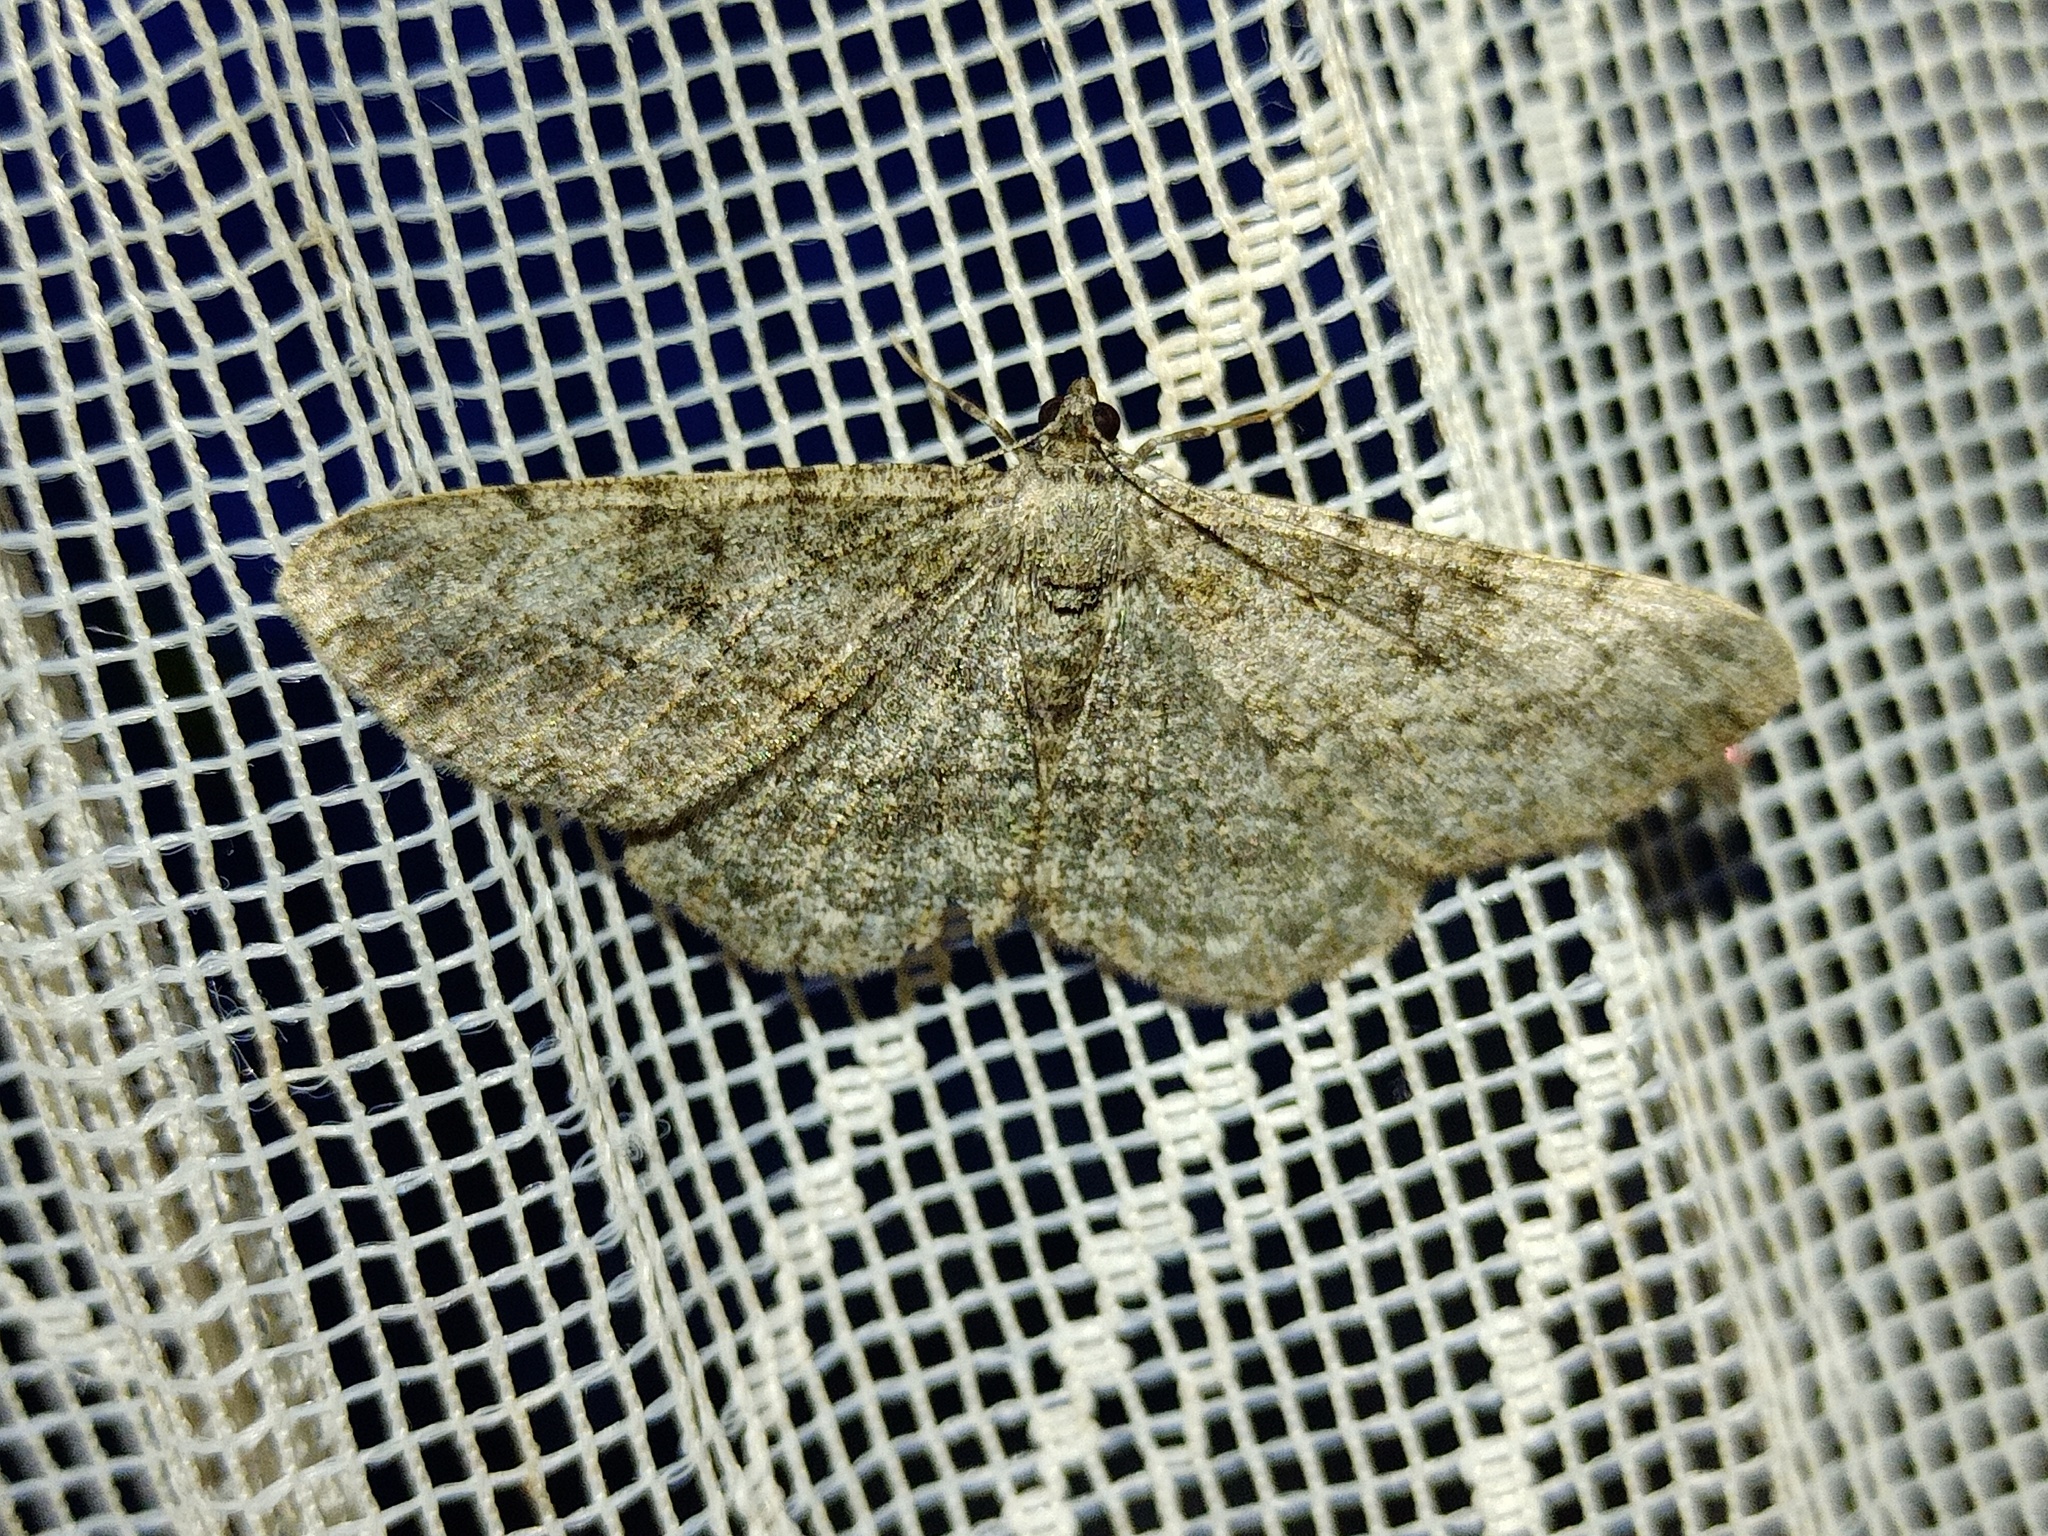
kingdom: Animalia
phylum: Arthropoda
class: Insecta
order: Lepidoptera
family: Geometridae
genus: Peribatodes
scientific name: Peribatodes rhomboidaria
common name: Willow beauty
